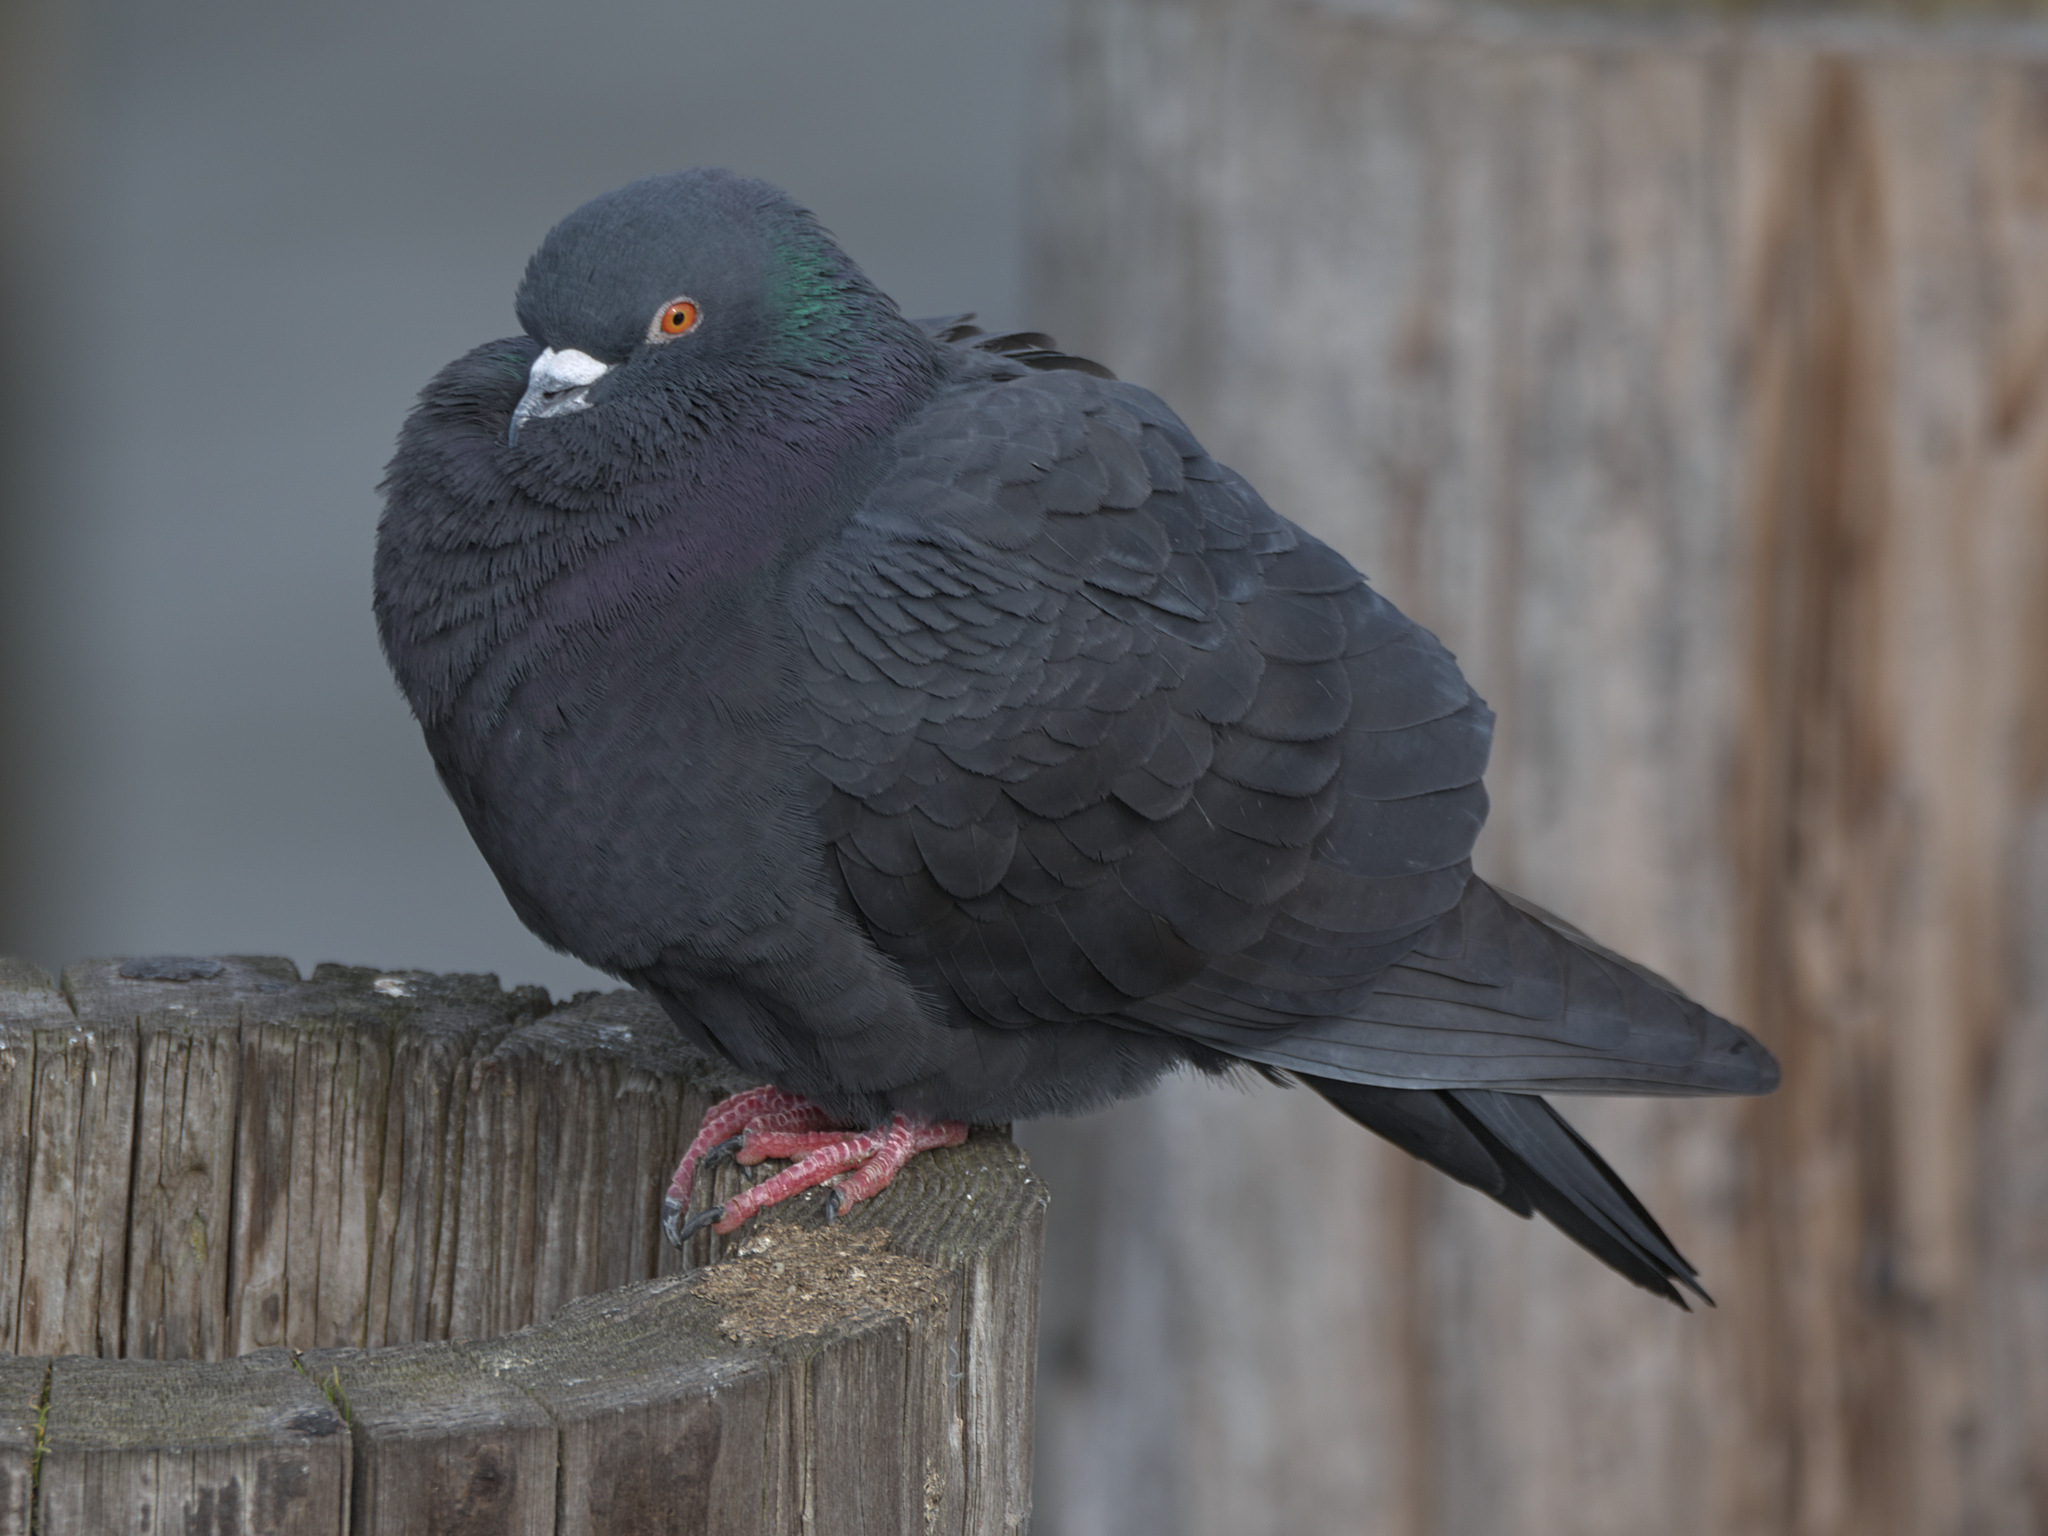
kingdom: Animalia
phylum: Chordata
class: Aves
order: Columbiformes
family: Columbidae
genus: Columba
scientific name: Columba livia
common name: Rock pigeon
